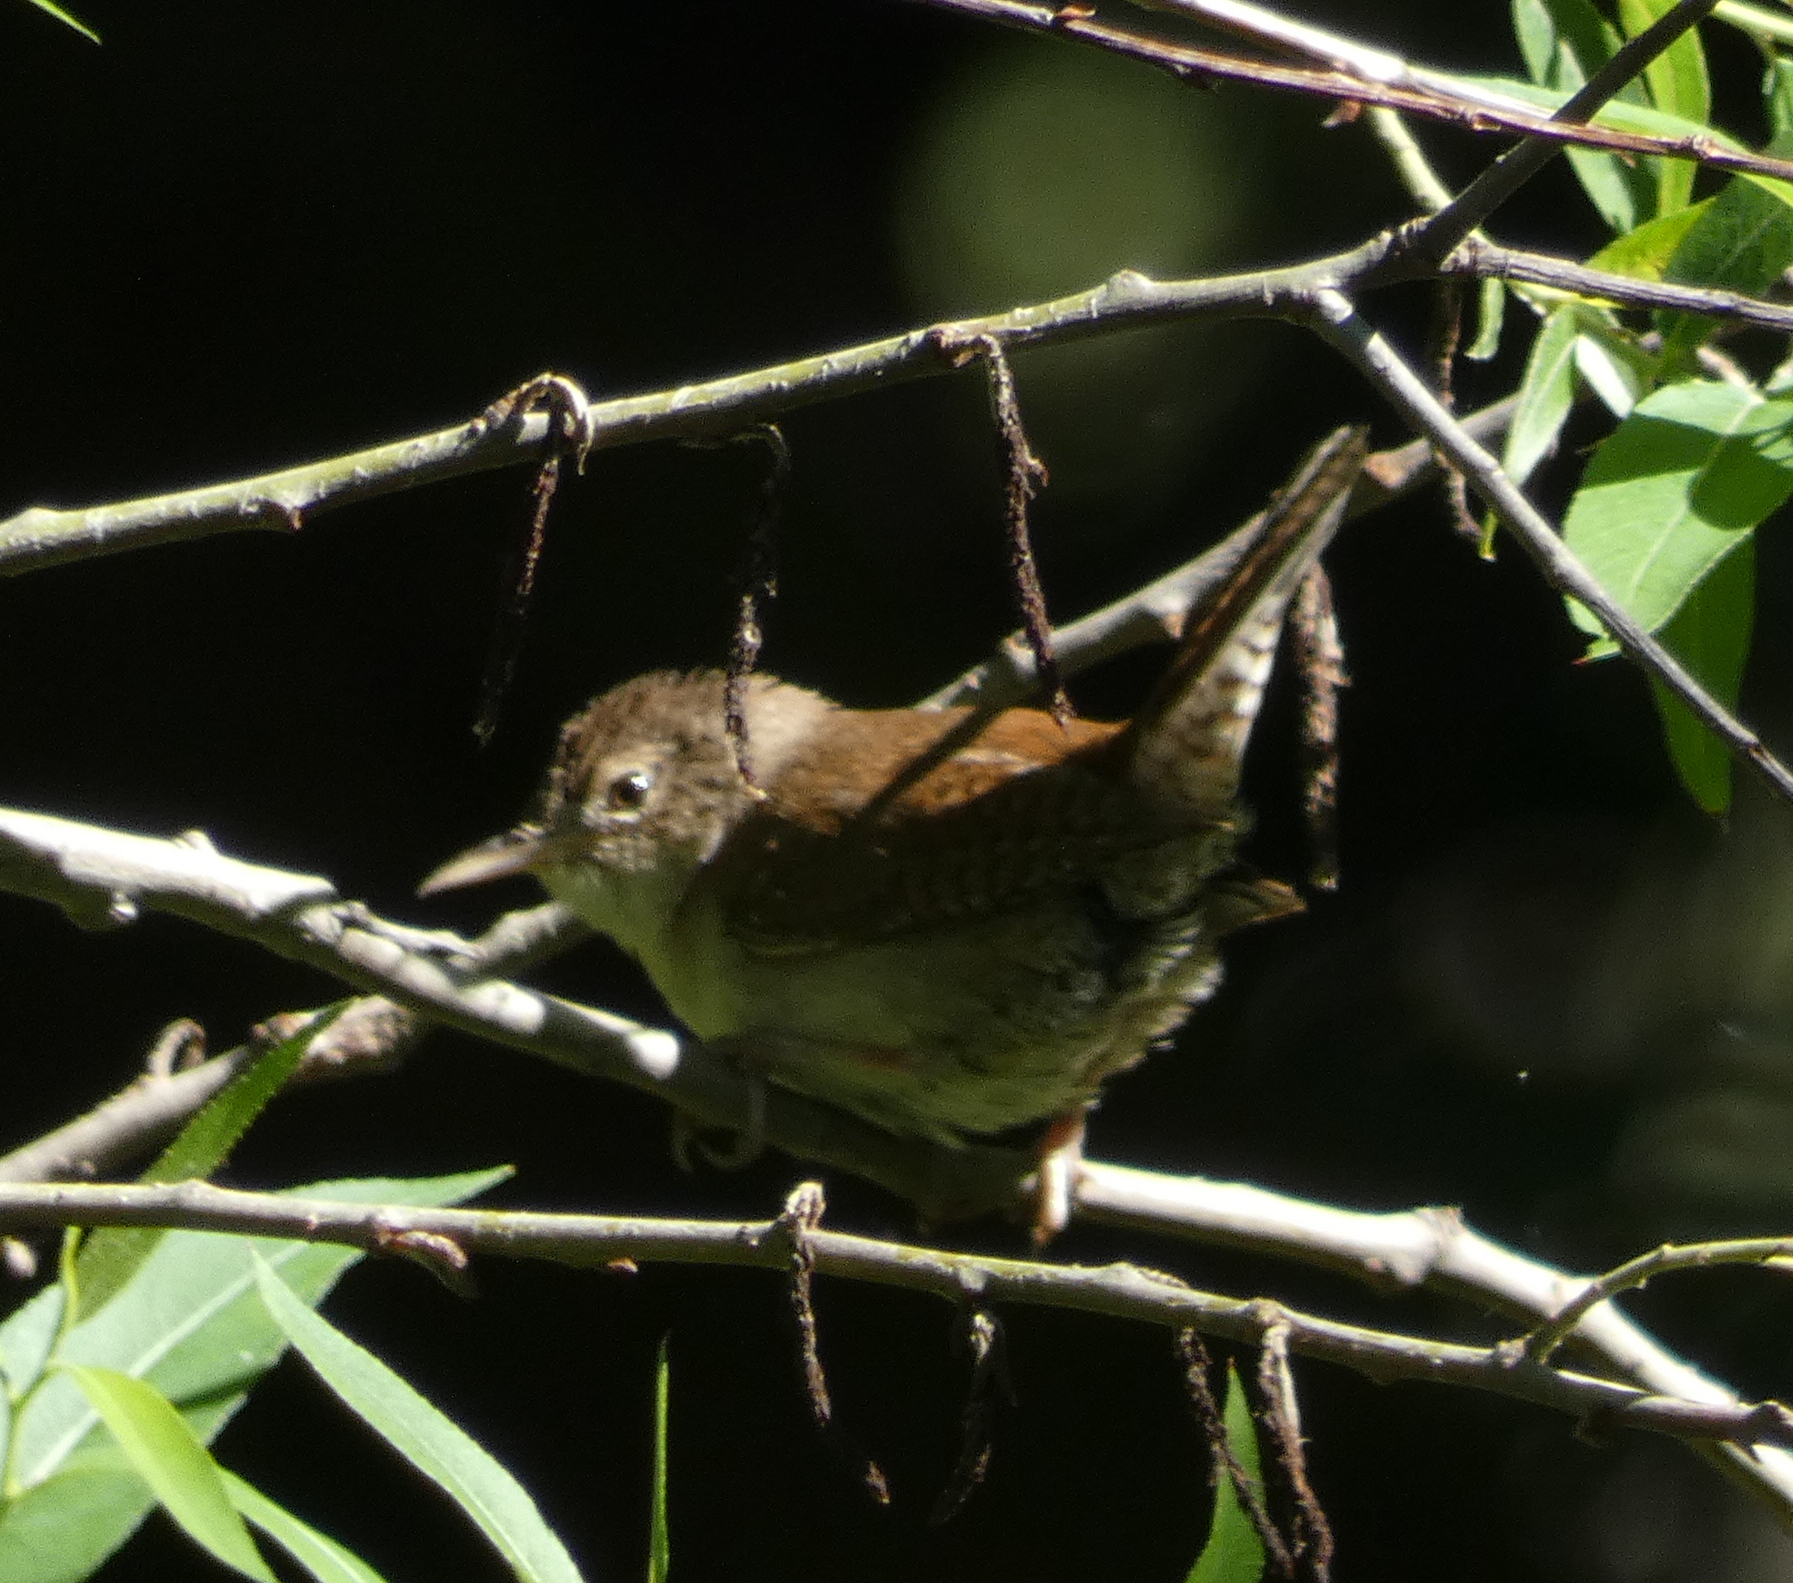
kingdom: Animalia
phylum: Chordata
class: Aves
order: Passeriformes
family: Troglodytidae
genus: Troglodytes
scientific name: Troglodytes aedon
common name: House wren
